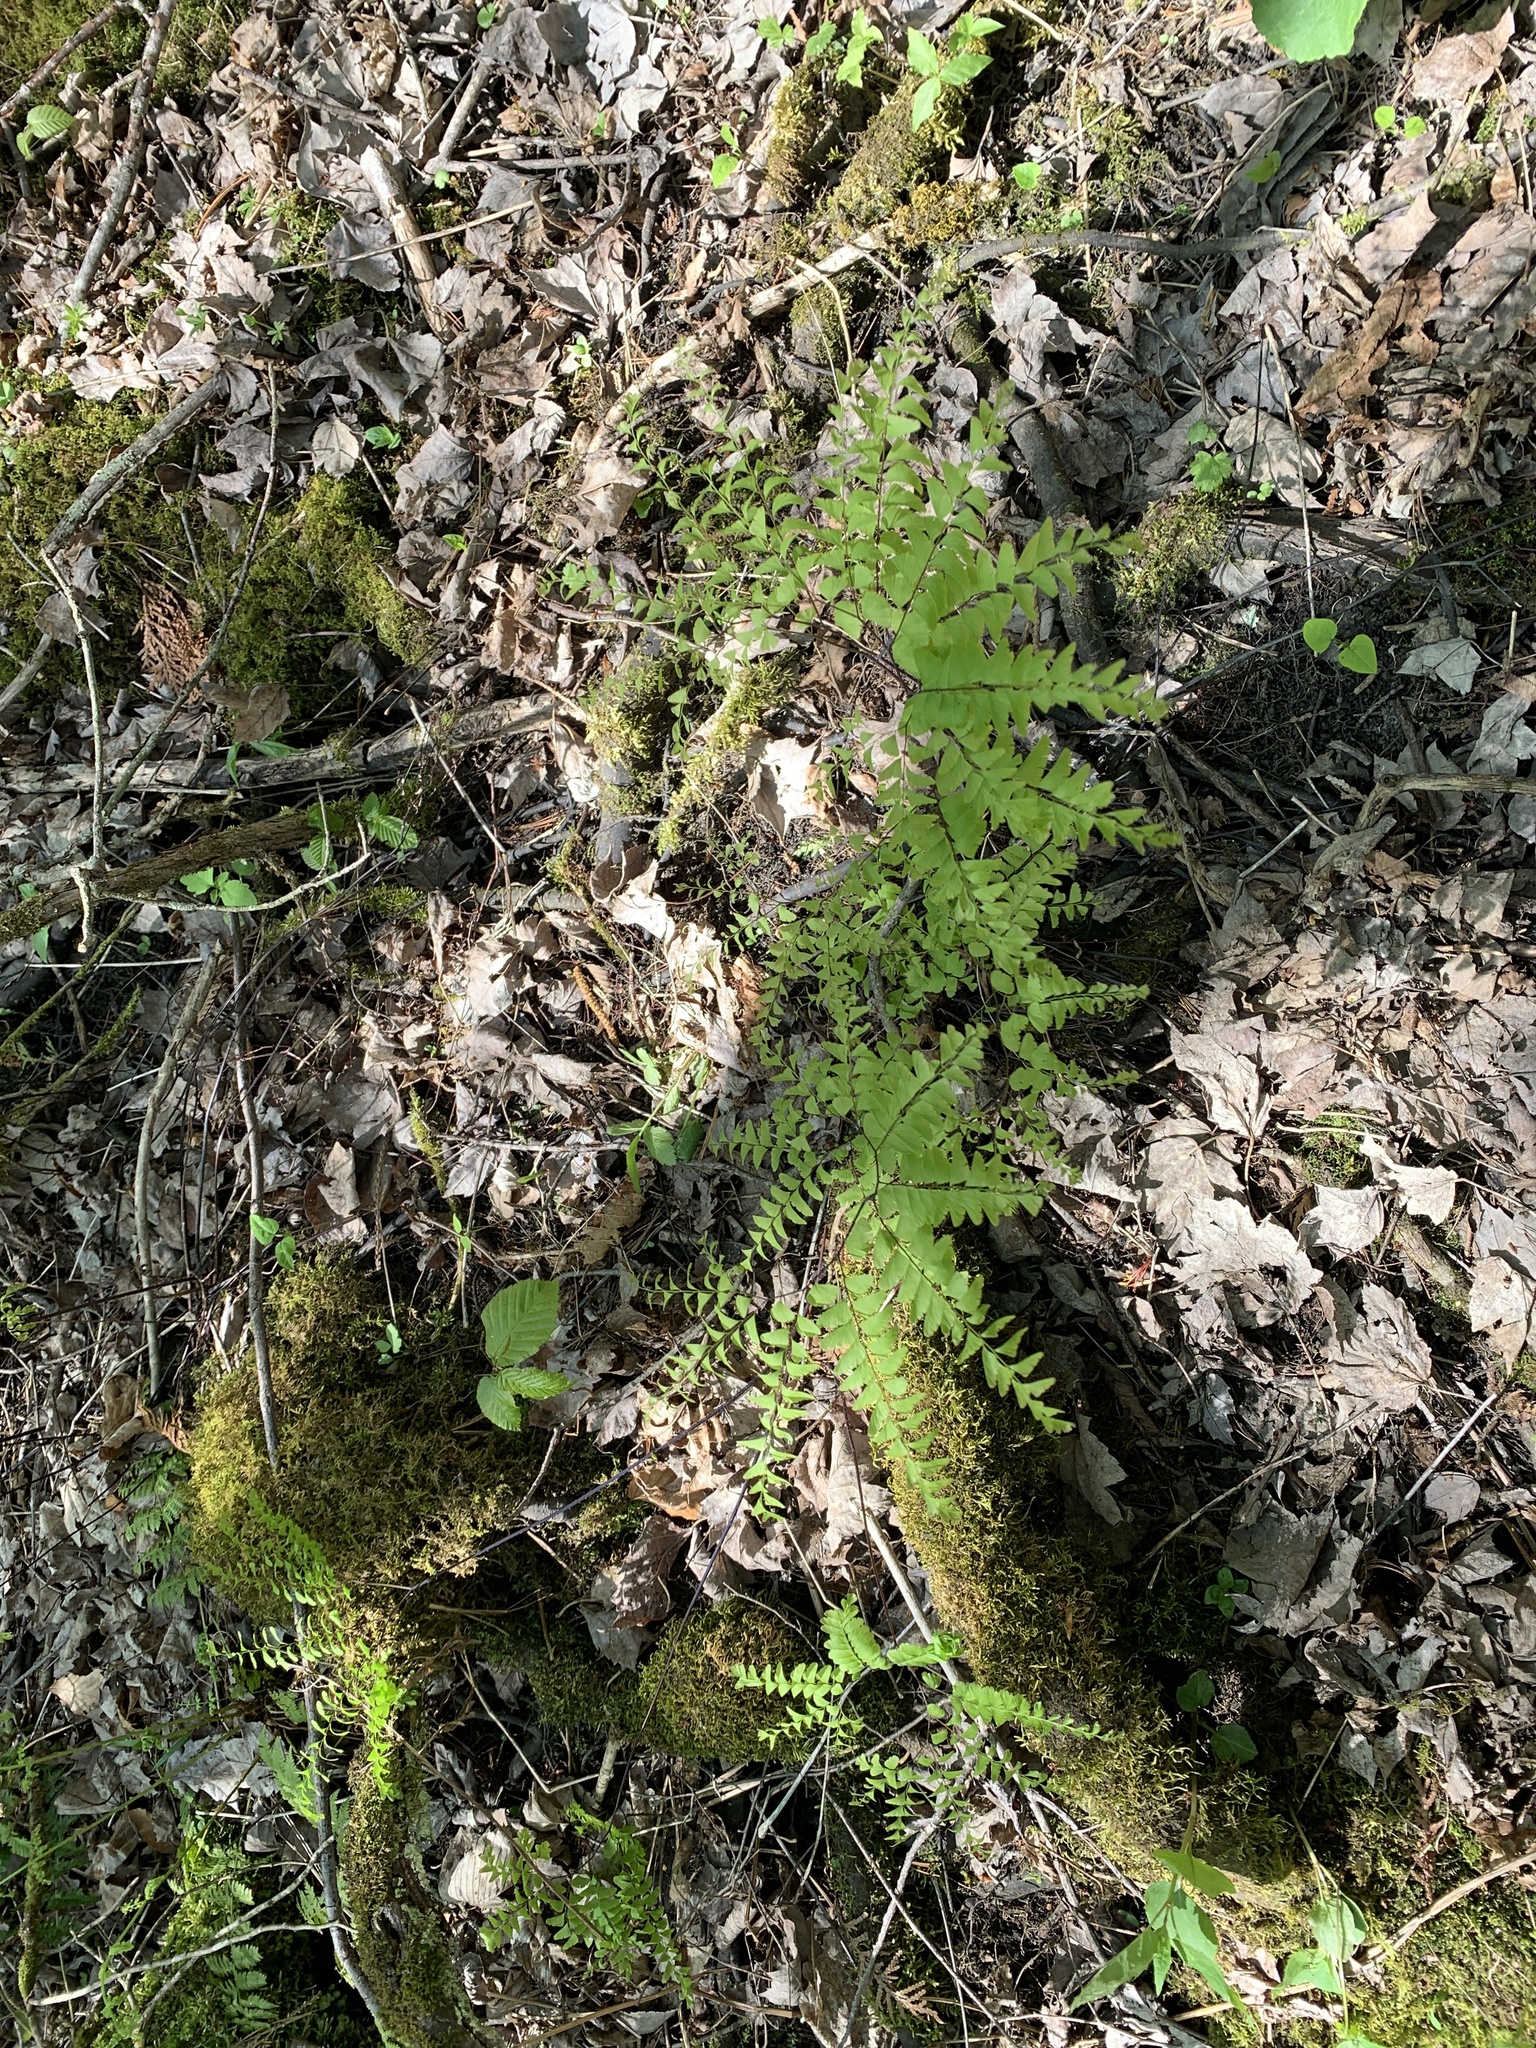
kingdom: Plantae
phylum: Tracheophyta
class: Polypodiopsida
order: Polypodiales
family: Pteridaceae
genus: Adiantum
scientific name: Adiantum pedatum
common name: Five-finger fern
